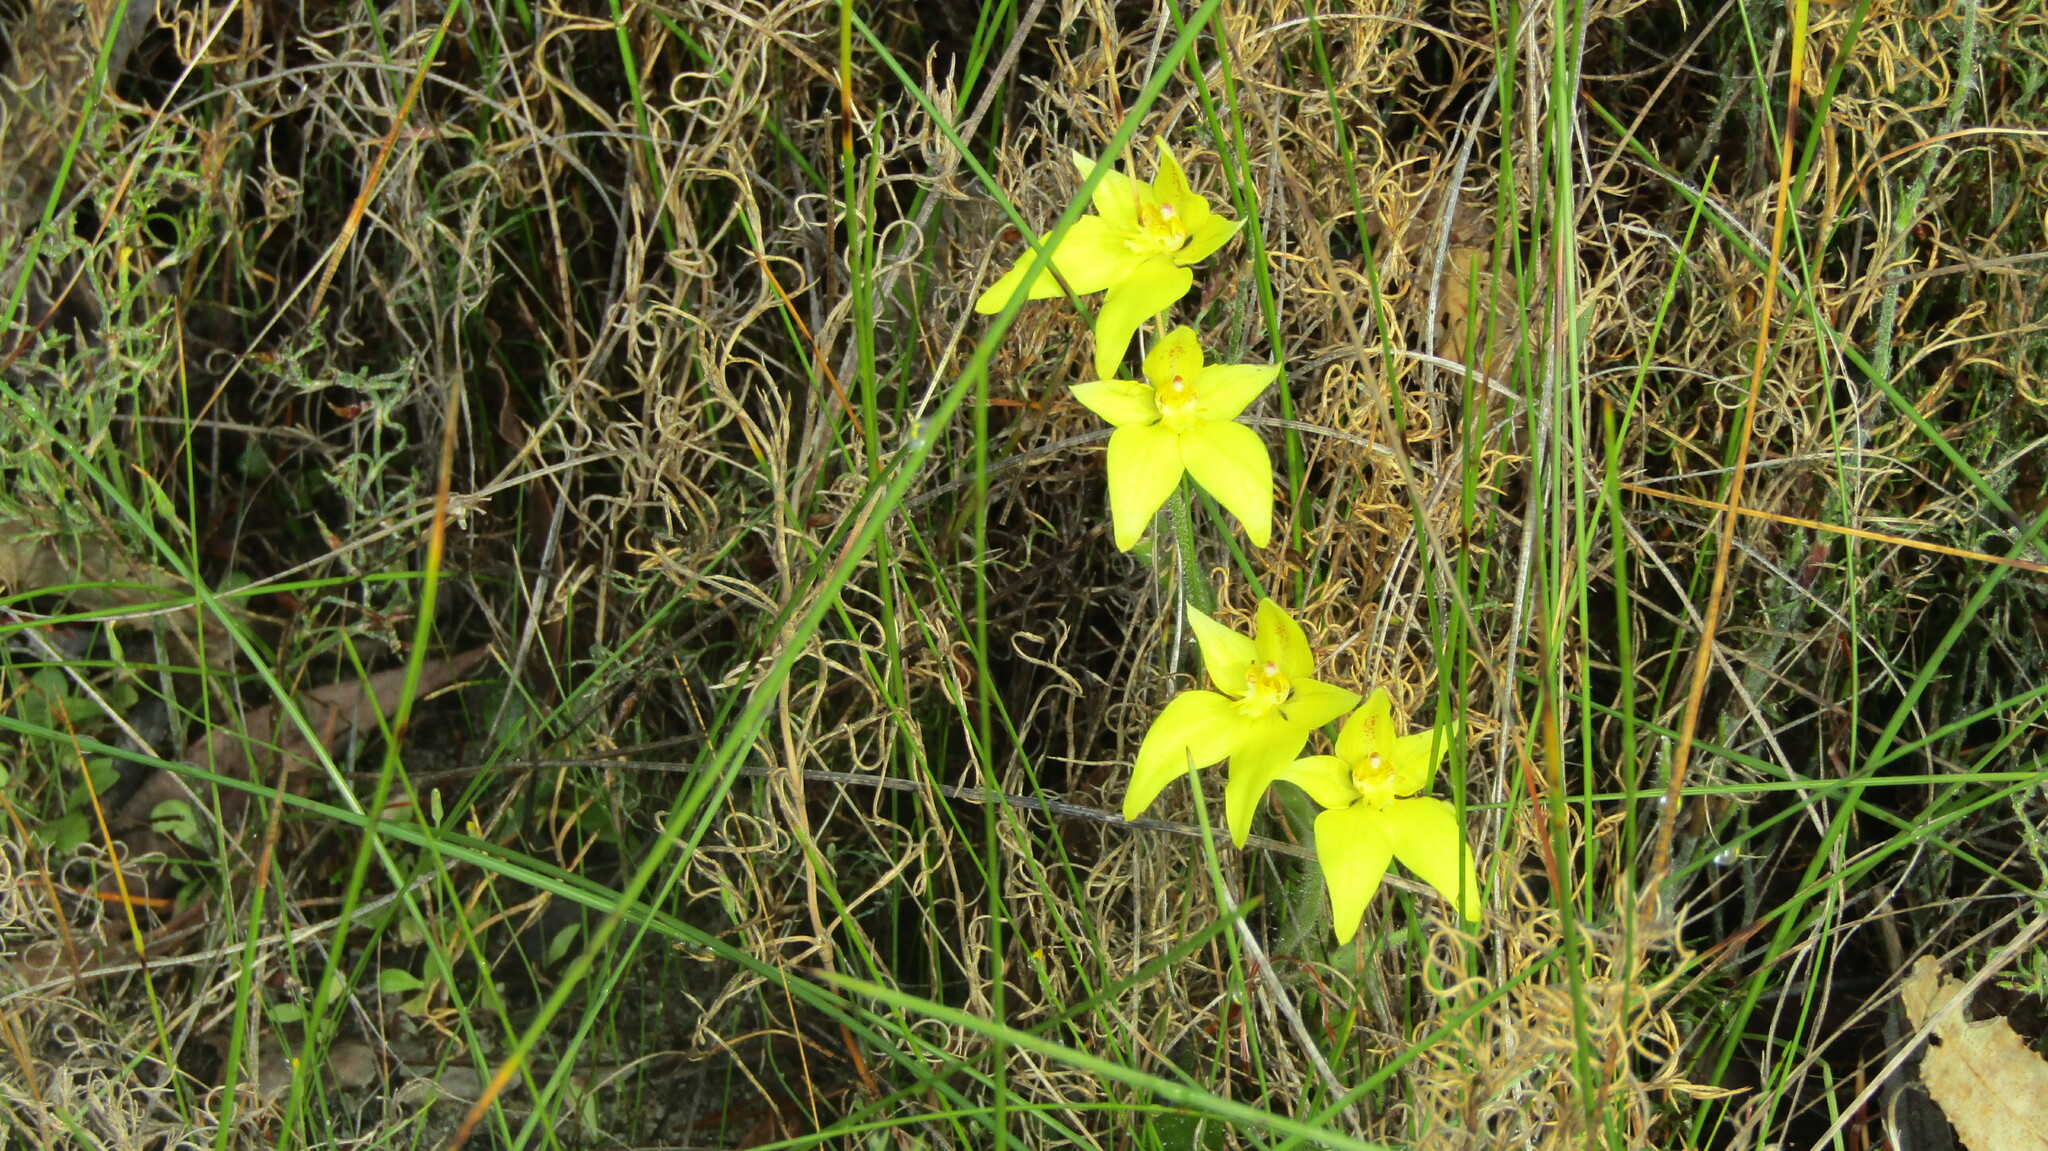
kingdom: Plantae
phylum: Tracheophyta
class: Liliopsida
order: Asparagales
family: Orchidaceae
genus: Caladenia
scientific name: Caladenia flava
